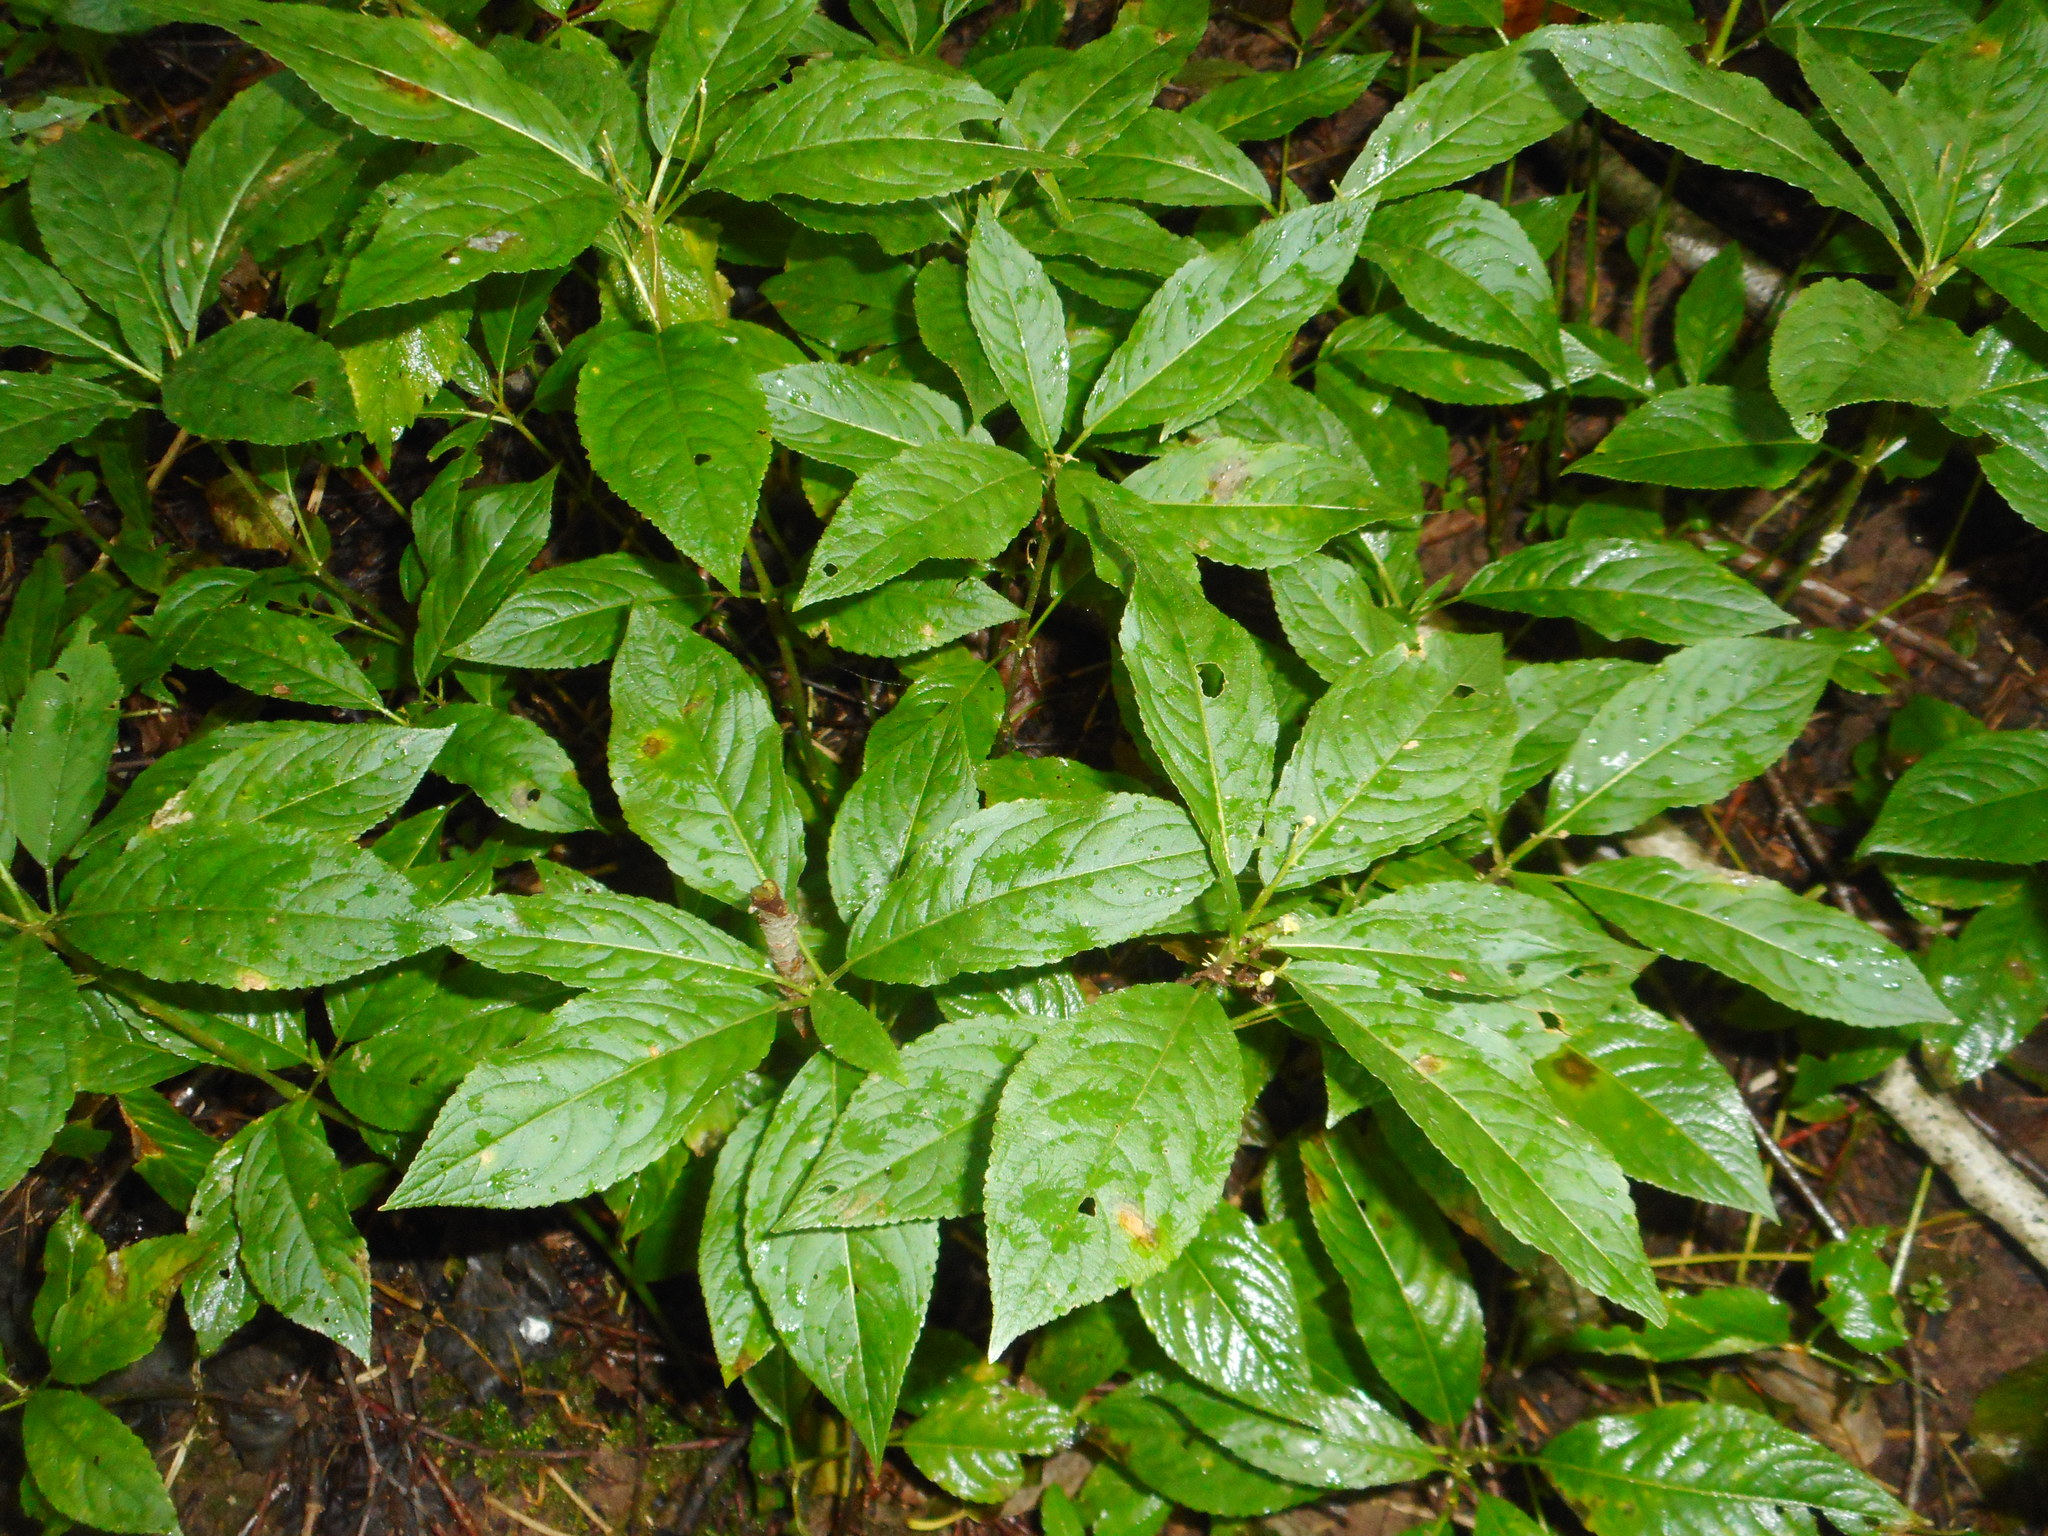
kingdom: Plantae
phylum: Tracheophyta
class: Magnoliopsida
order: Malpighiales
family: Euphorbiaceae
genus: Mercurialis
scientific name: Mercurialis perennis
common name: Dog mercury
